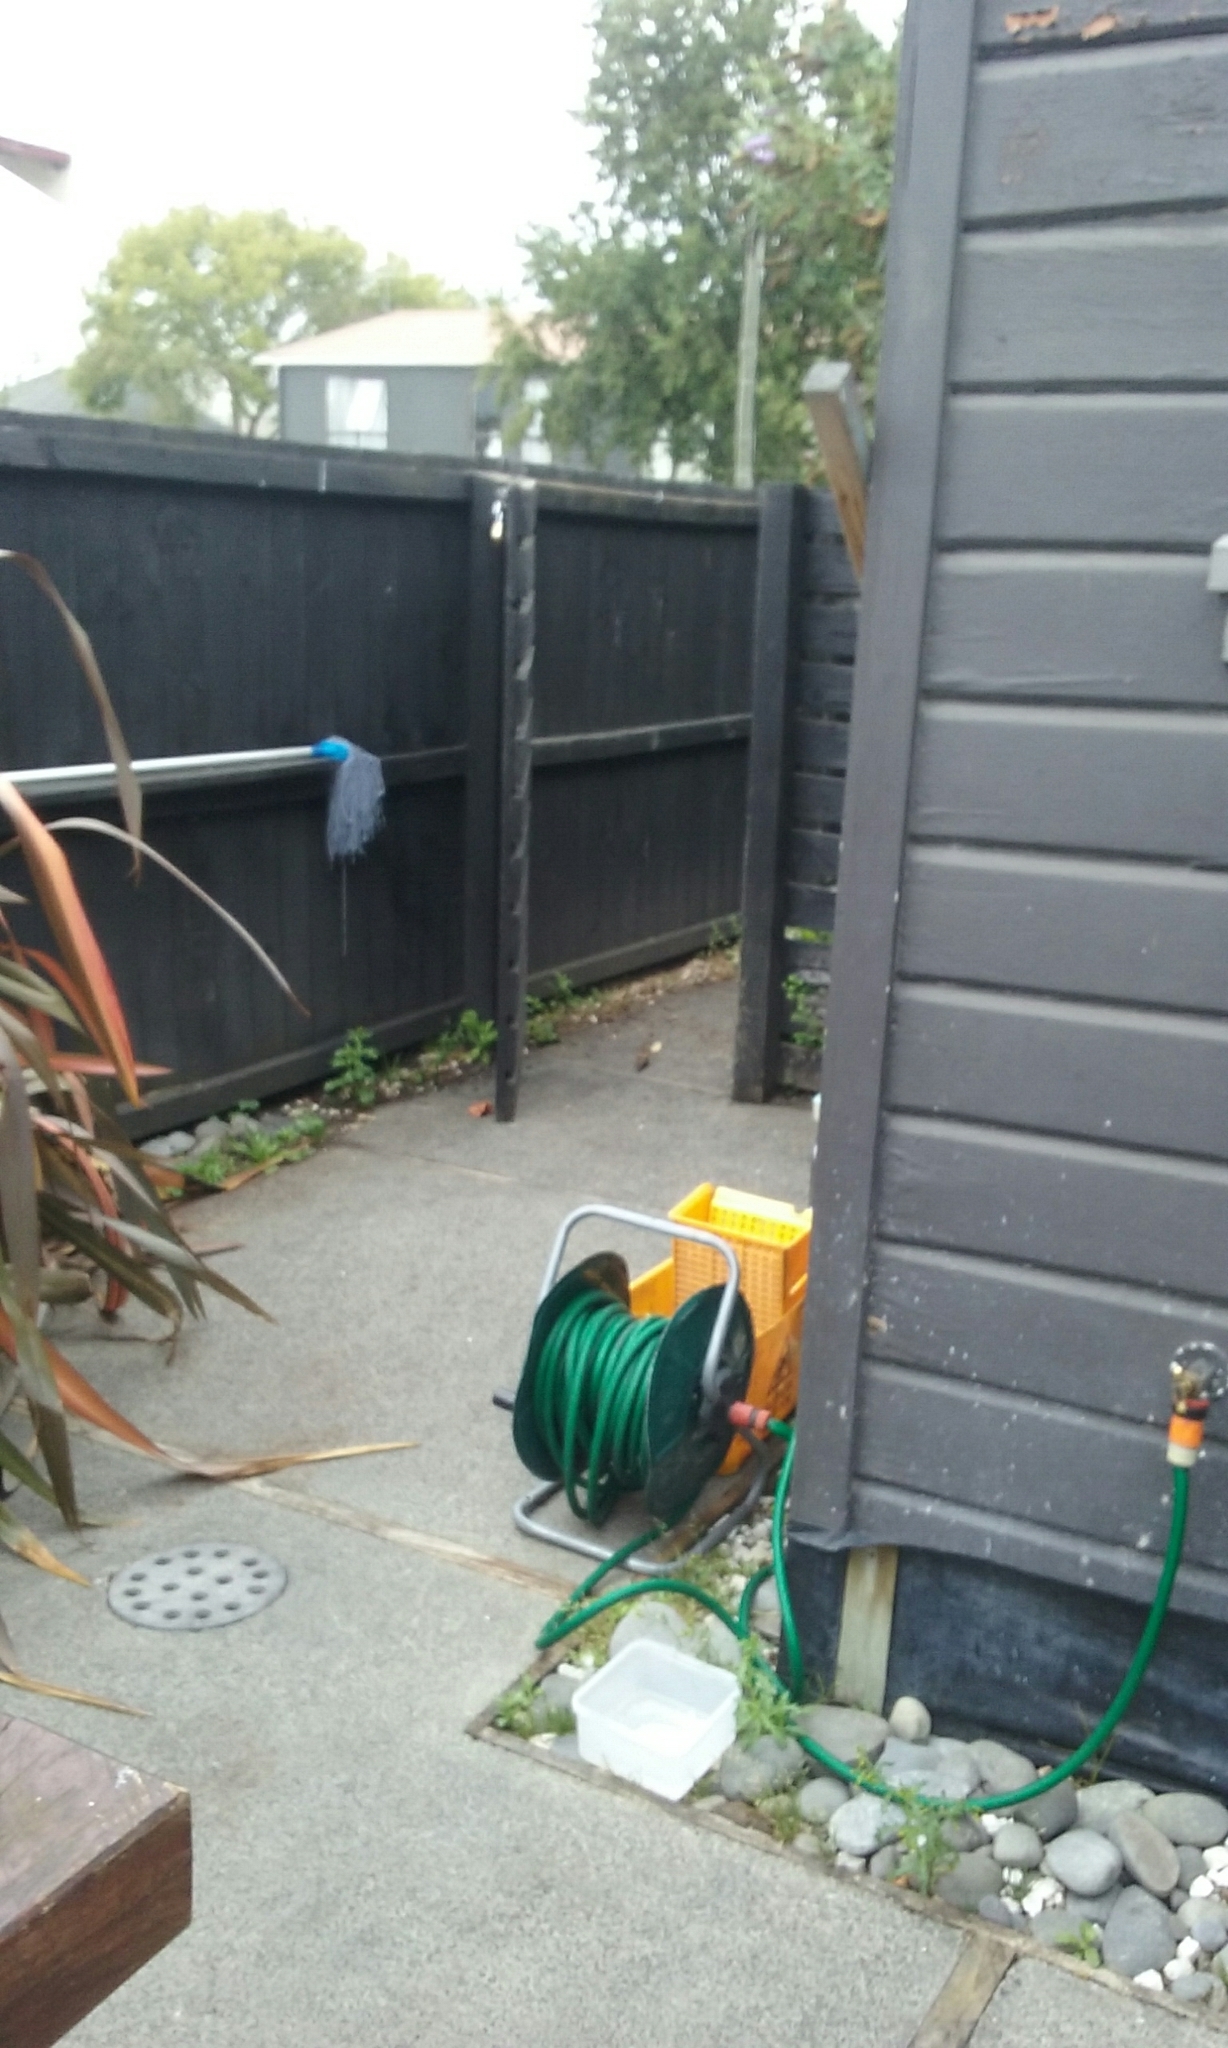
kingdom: Animalia
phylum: Chordata
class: Aves
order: Passeriformes
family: Passeridae
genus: Passer
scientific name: Passer domesticus
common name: House sparrow
